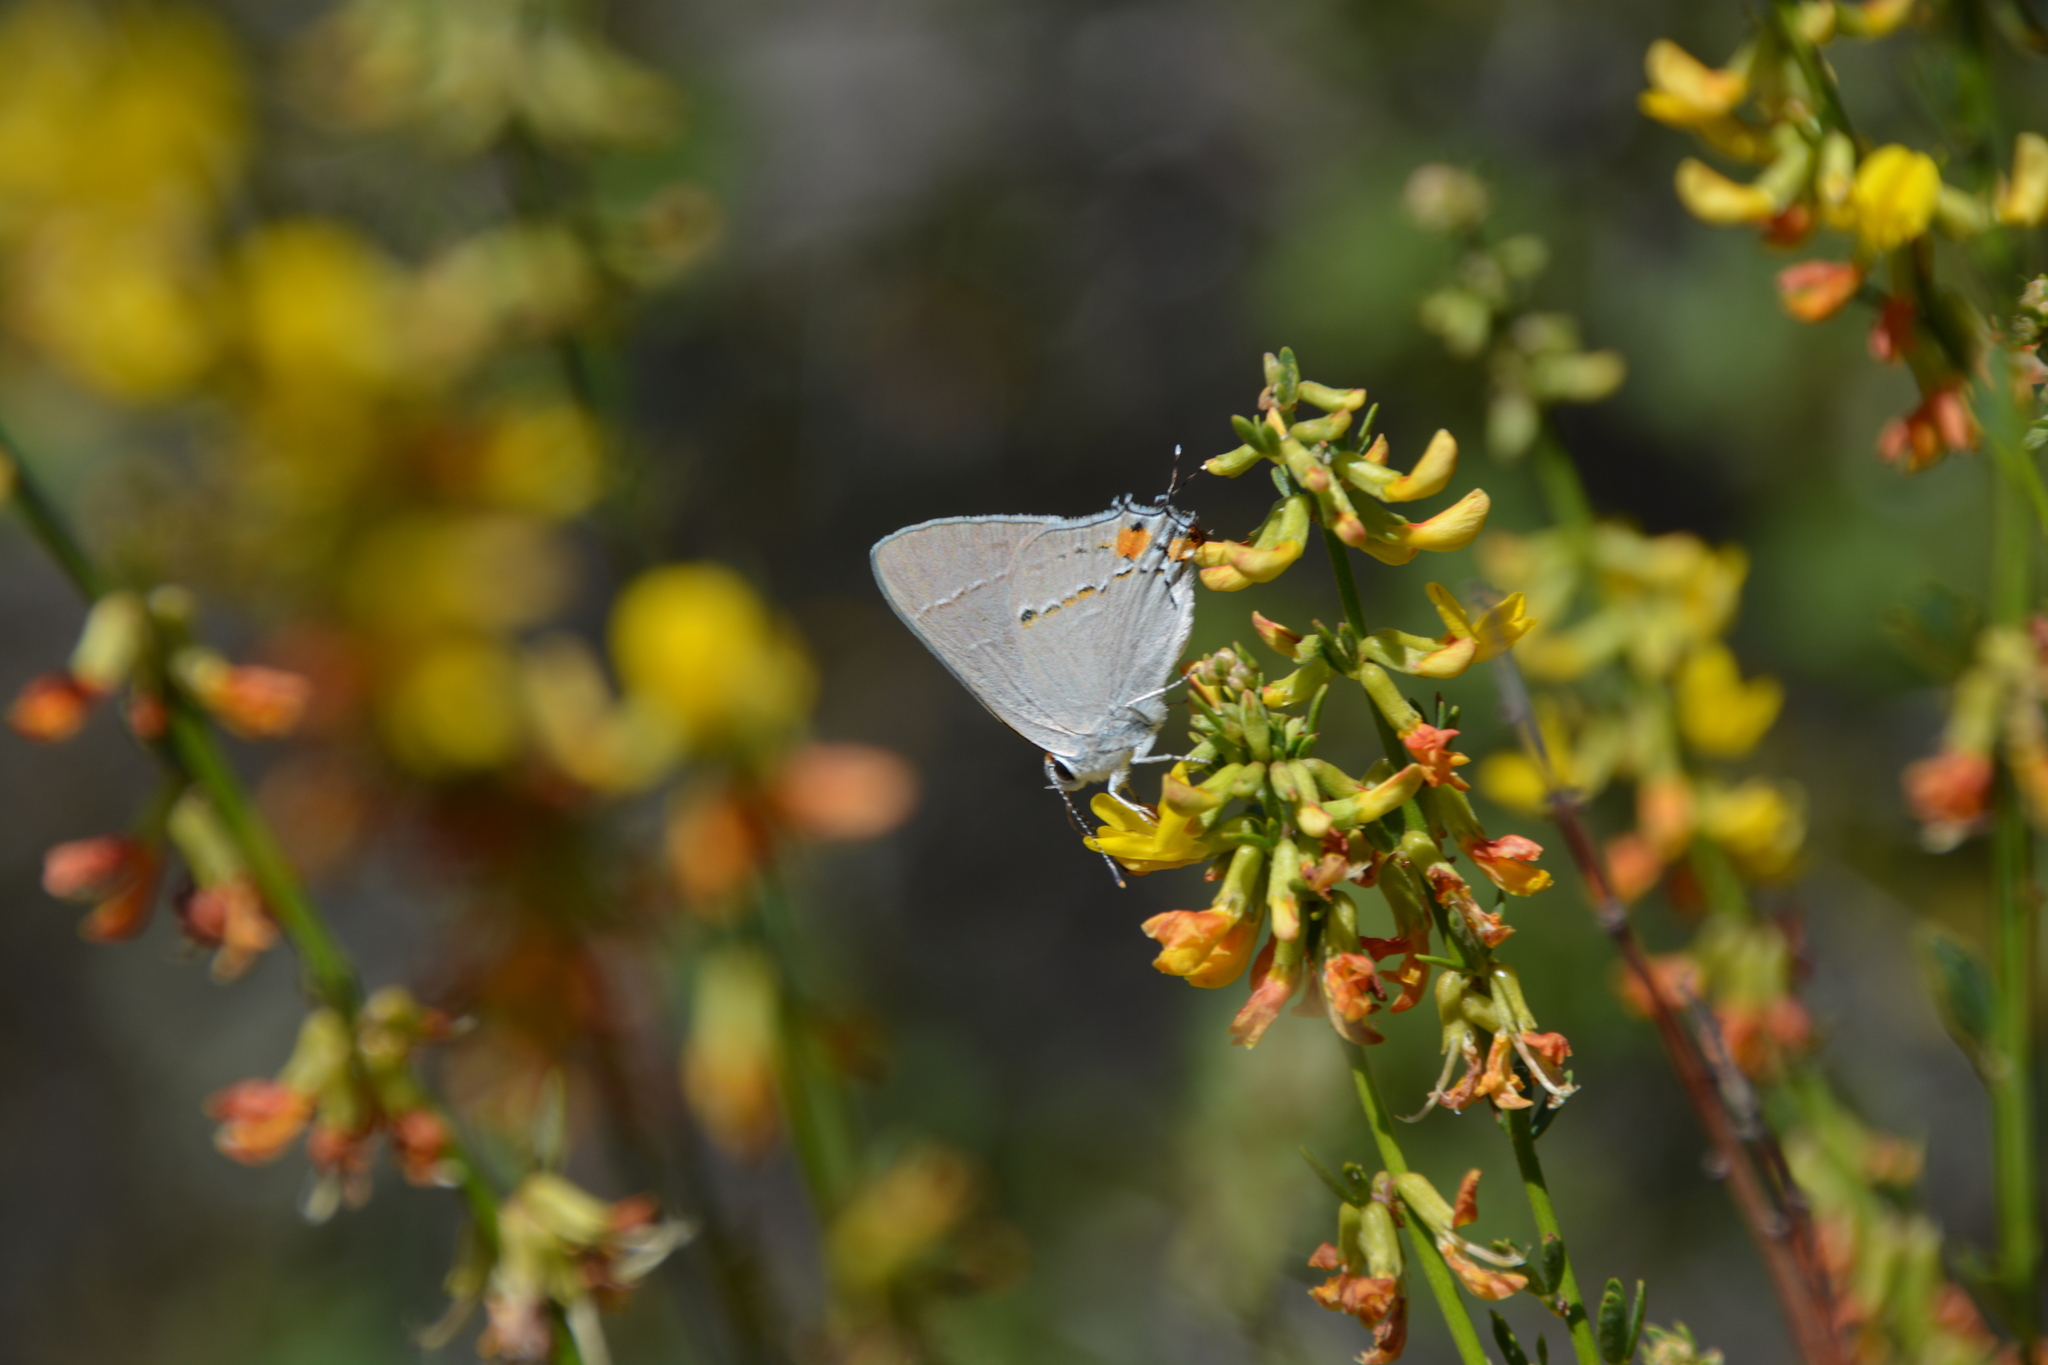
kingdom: Animalia
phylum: Arthropoda
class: Insecta
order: Lepidoptera
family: Lycaenidae
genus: Strymon
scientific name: Strymon melinus
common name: Gray hairstreak
